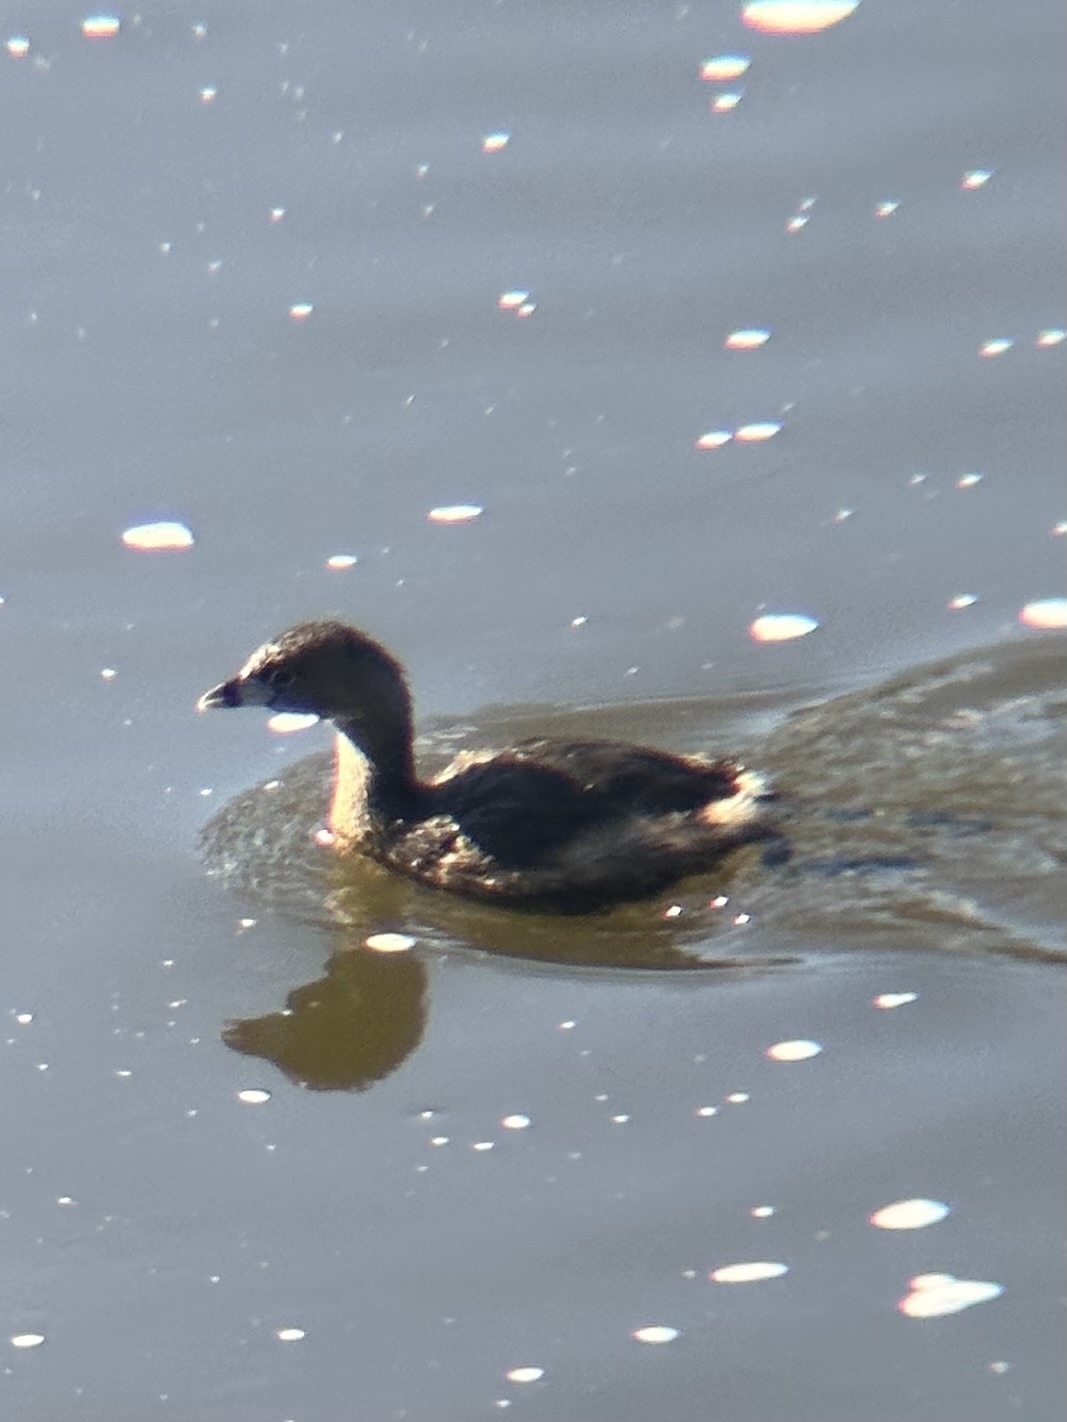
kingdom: Animalia
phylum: Chordata
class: Aves
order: Podicipediformes
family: Podicipedidae
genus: Podilymbus
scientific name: Podilymbus podiceps
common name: Pied-billed grebe
